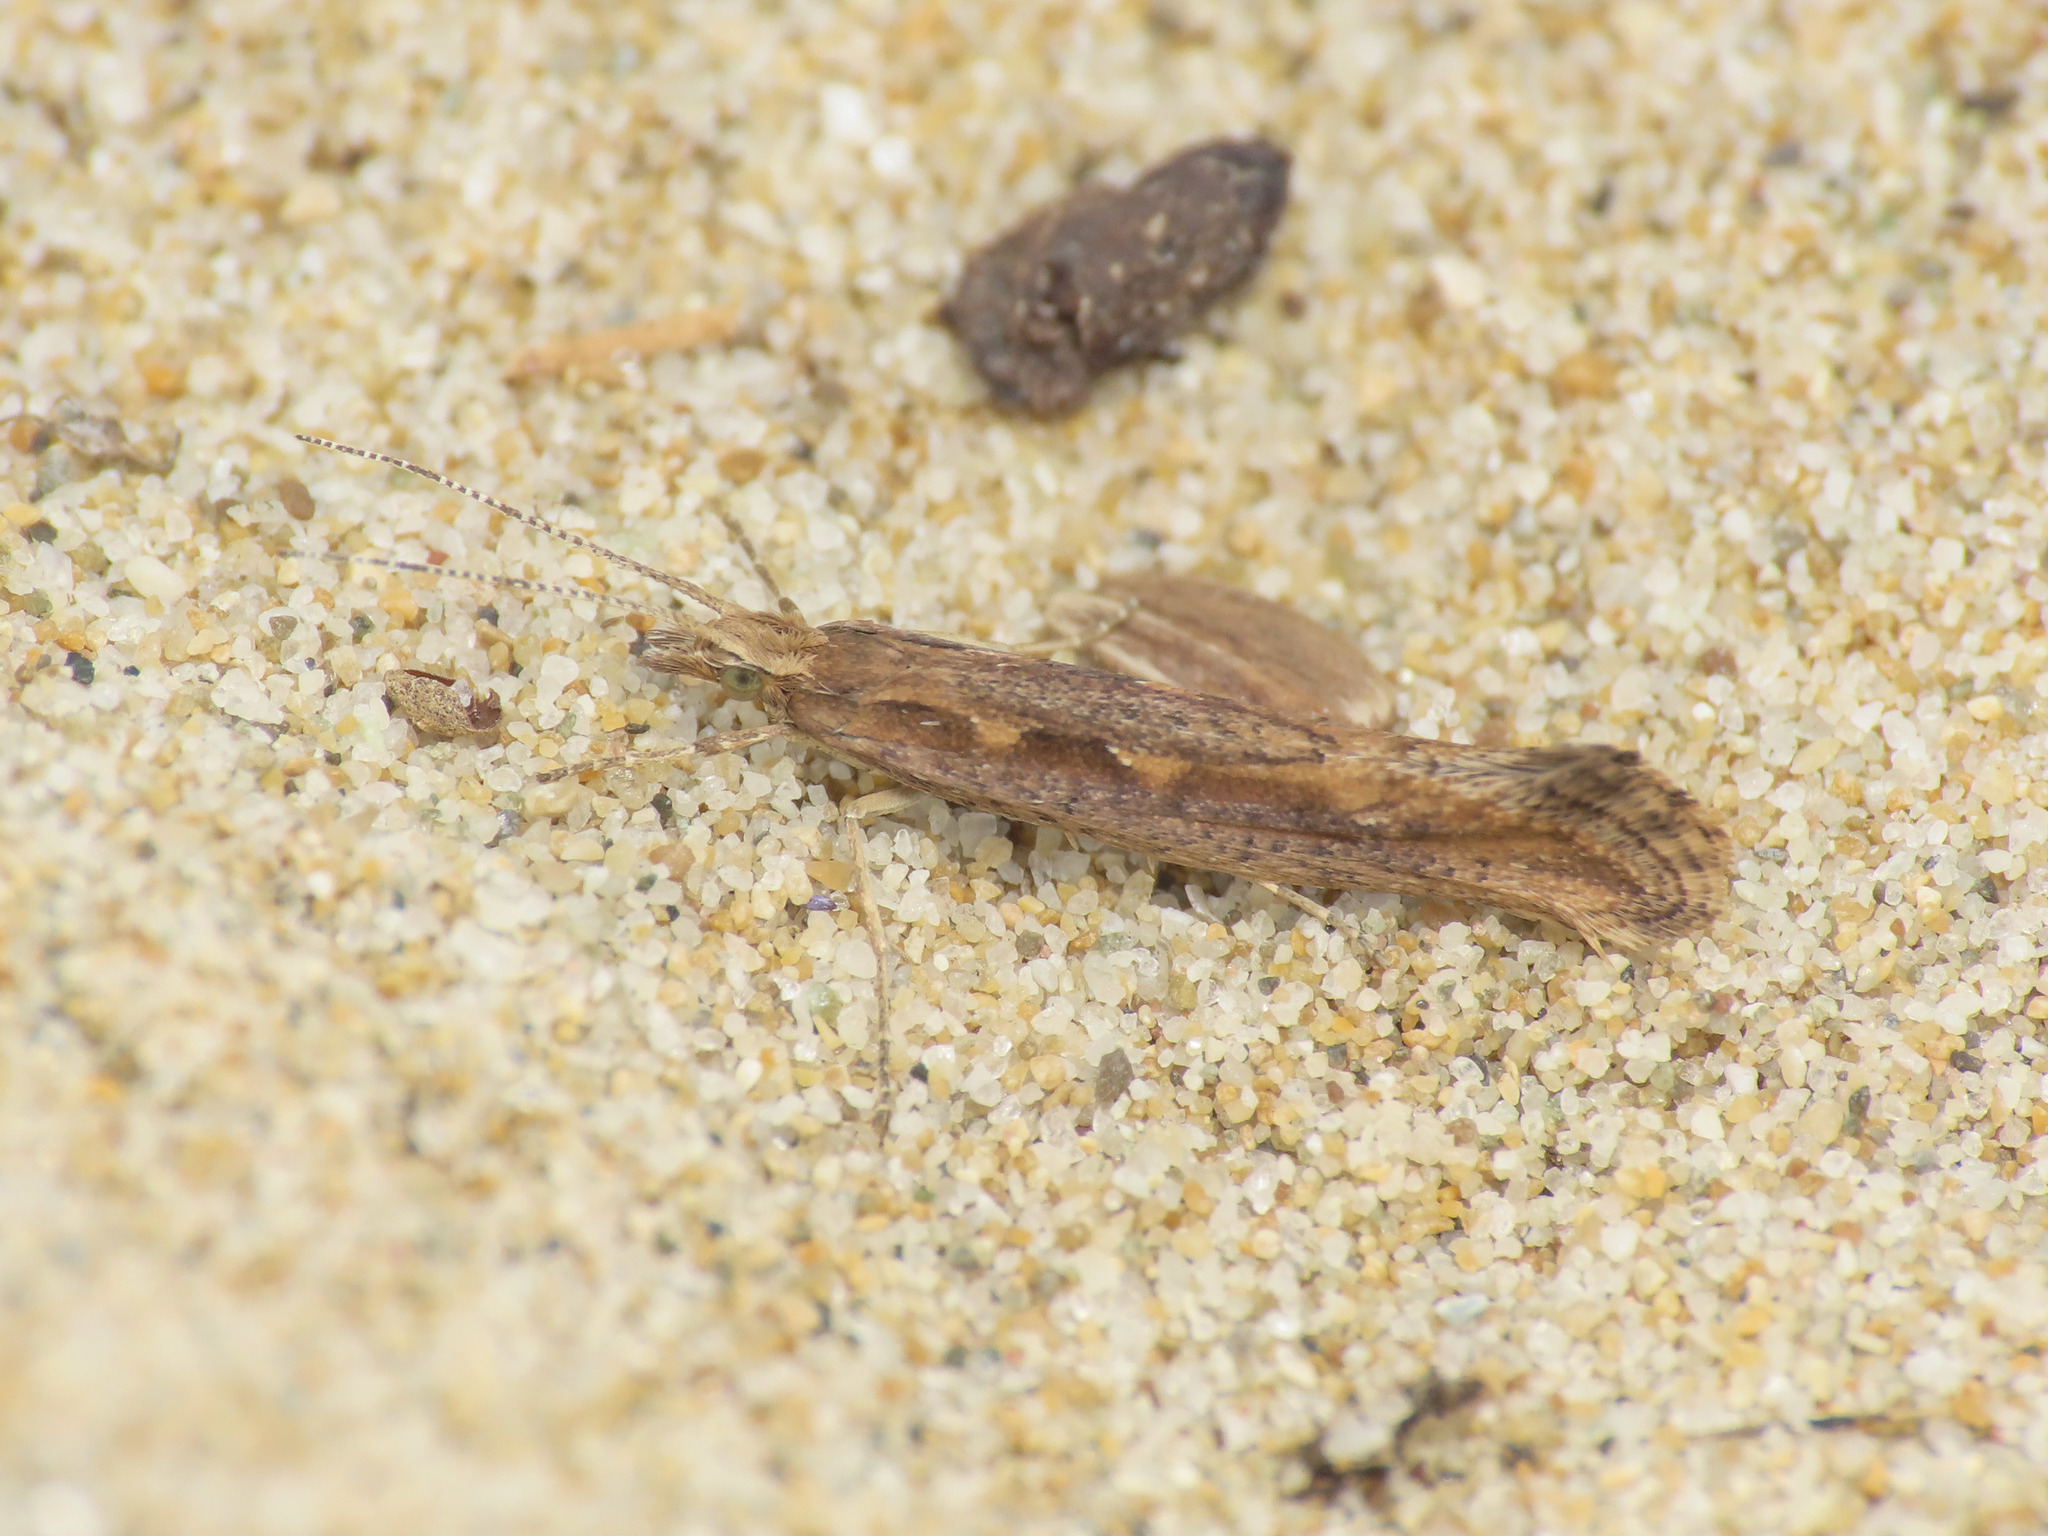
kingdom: Animalia
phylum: Arthropoda
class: Insecta
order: Lepidoptera
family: Plutellidae
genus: Plutella
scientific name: Plutella xylostella
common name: Diamond-back moth
